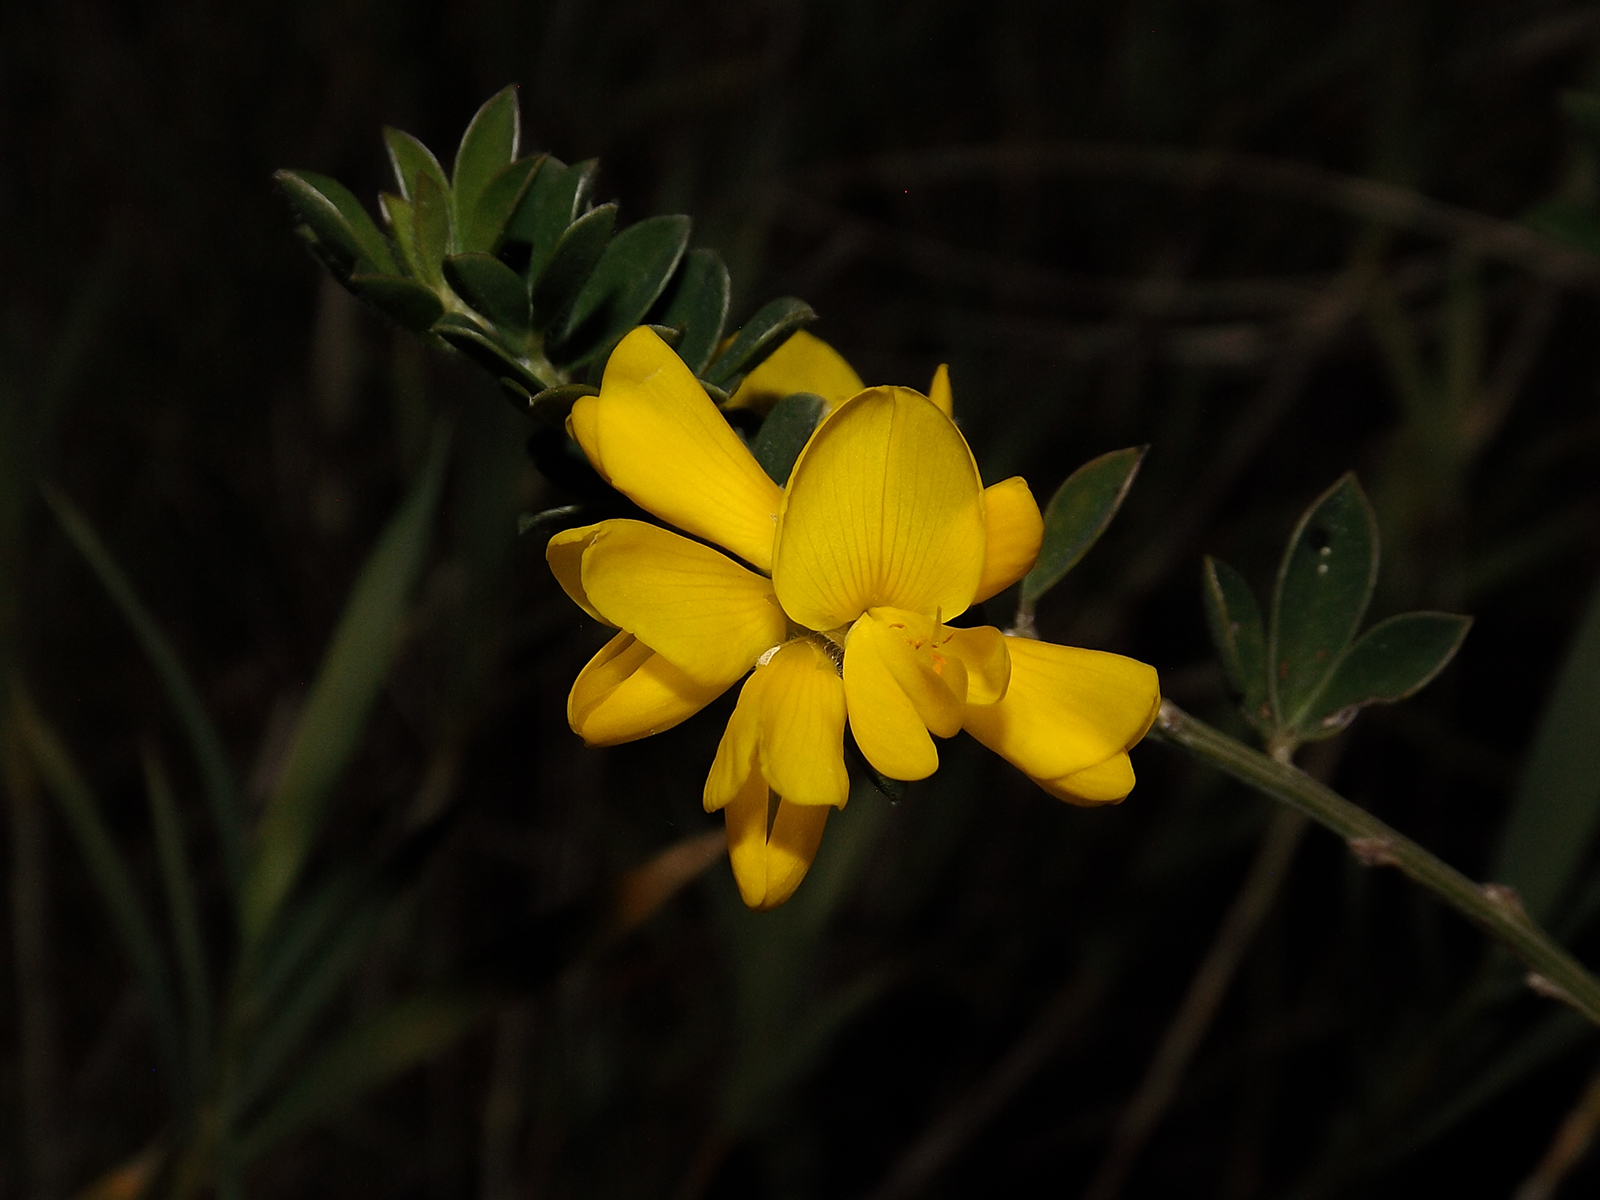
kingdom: Plantae
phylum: Tracheophyta
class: Magnoliopsida
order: Fabales
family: Fabaceae
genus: Genista
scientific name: Genista monspessulana
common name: Montpellier broom
